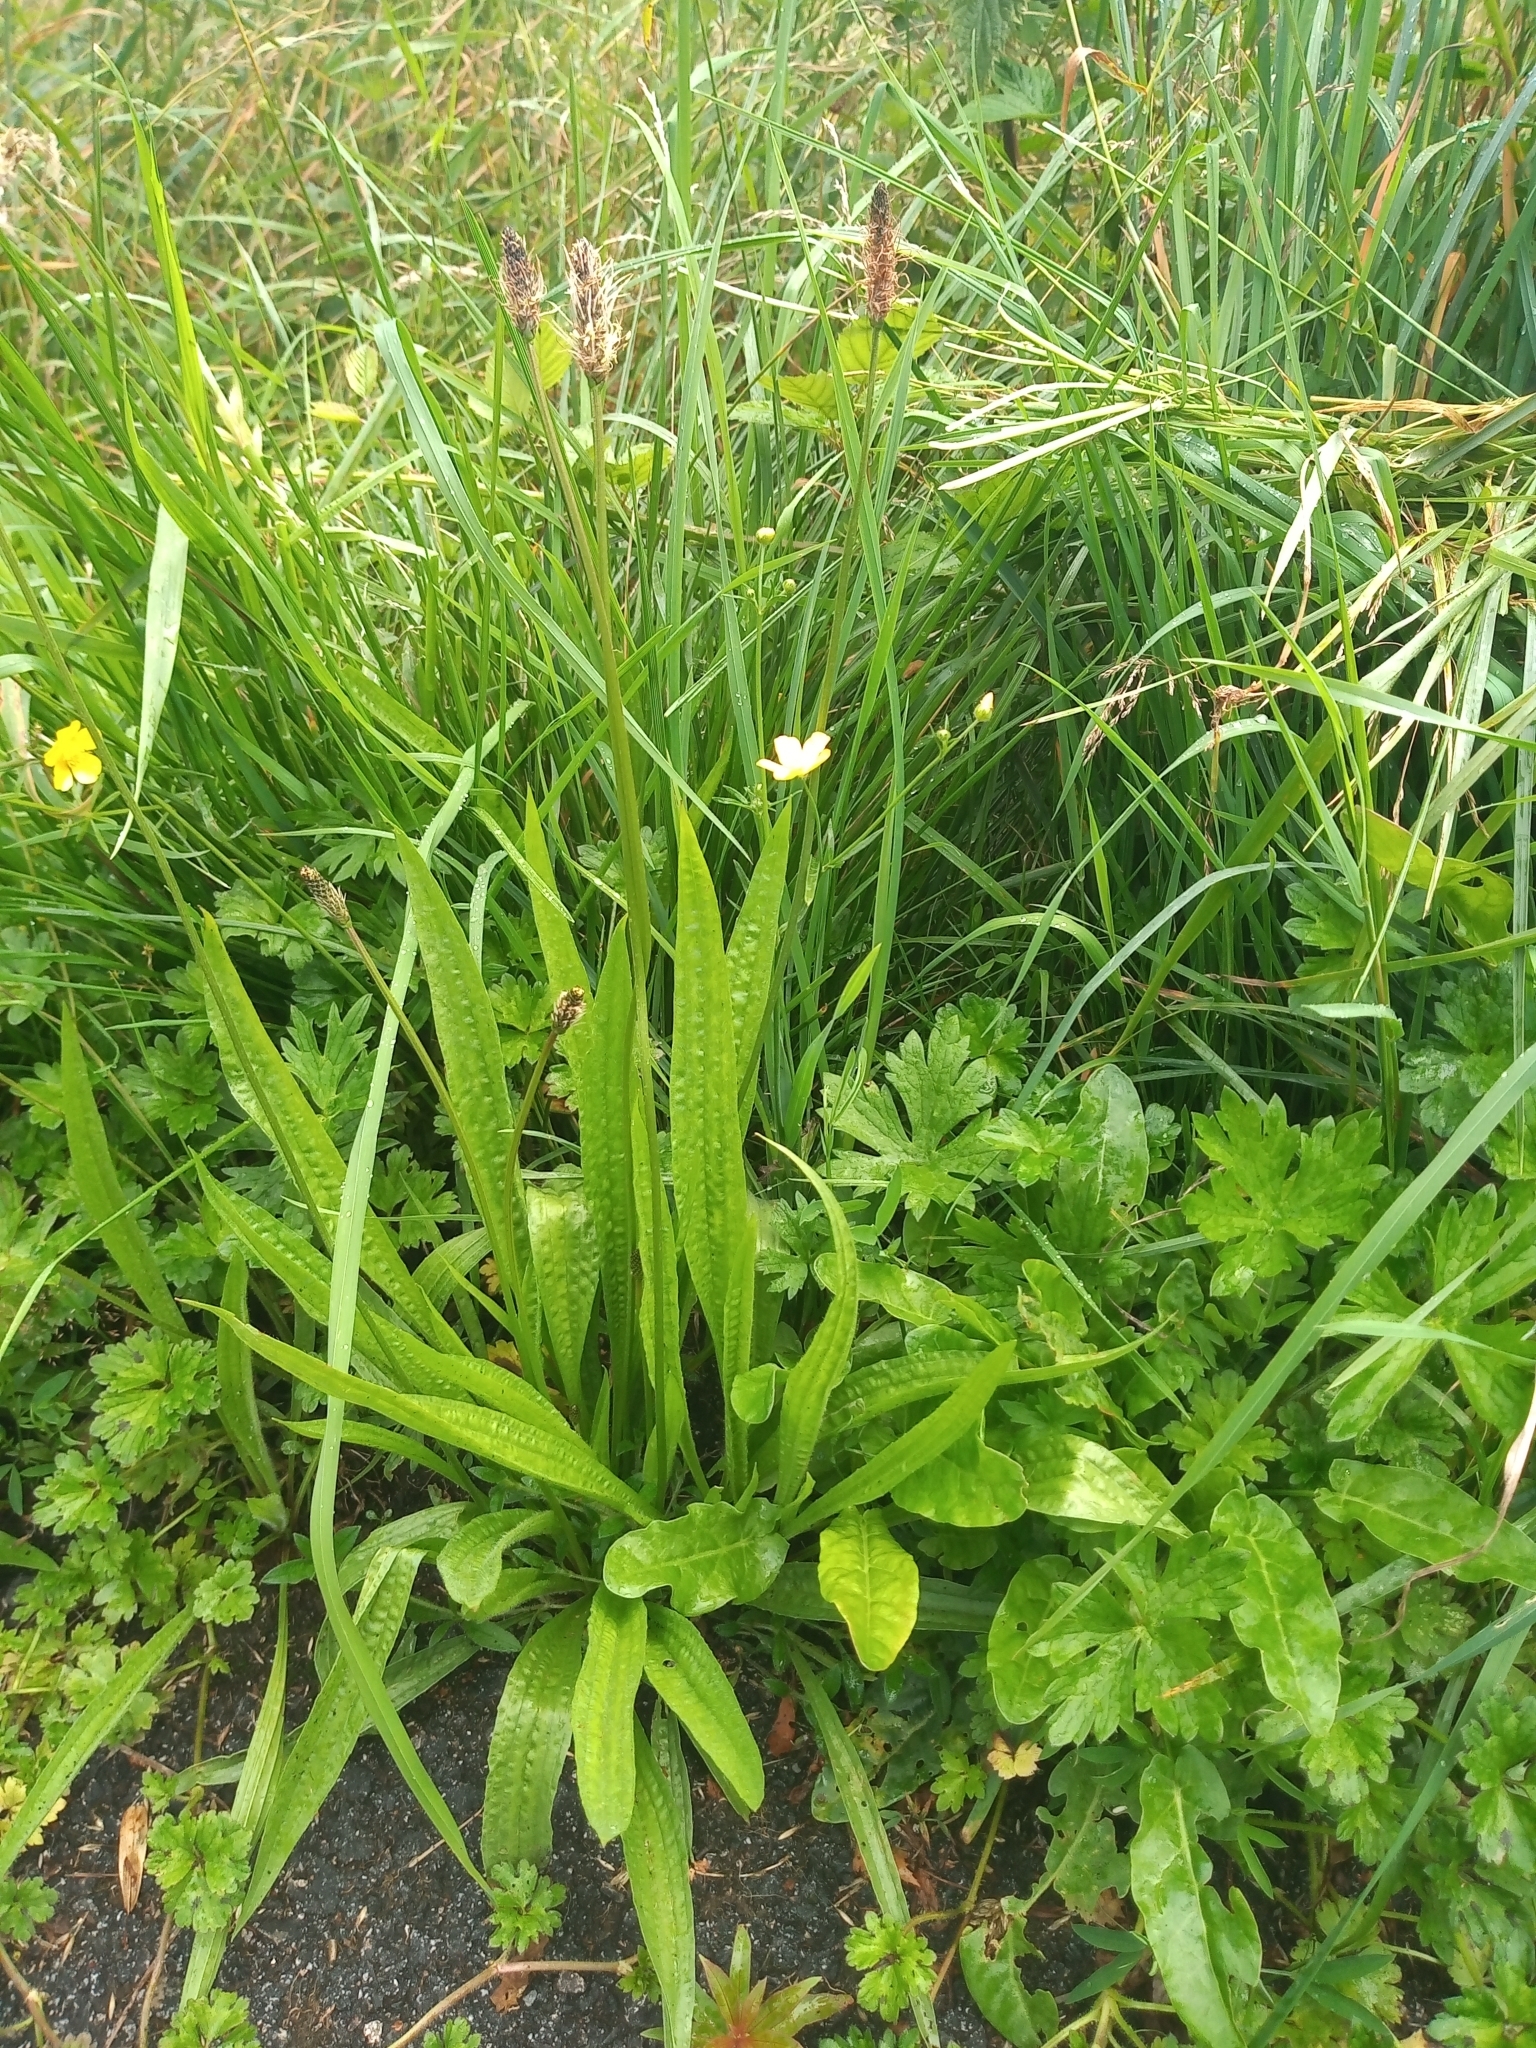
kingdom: Plantae
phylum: Tracheophyta
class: Magnoliopsida
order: Lamiales
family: Plantaginaceae
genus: Plantago
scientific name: Plantago lanceolata
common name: Ribwort plantain
